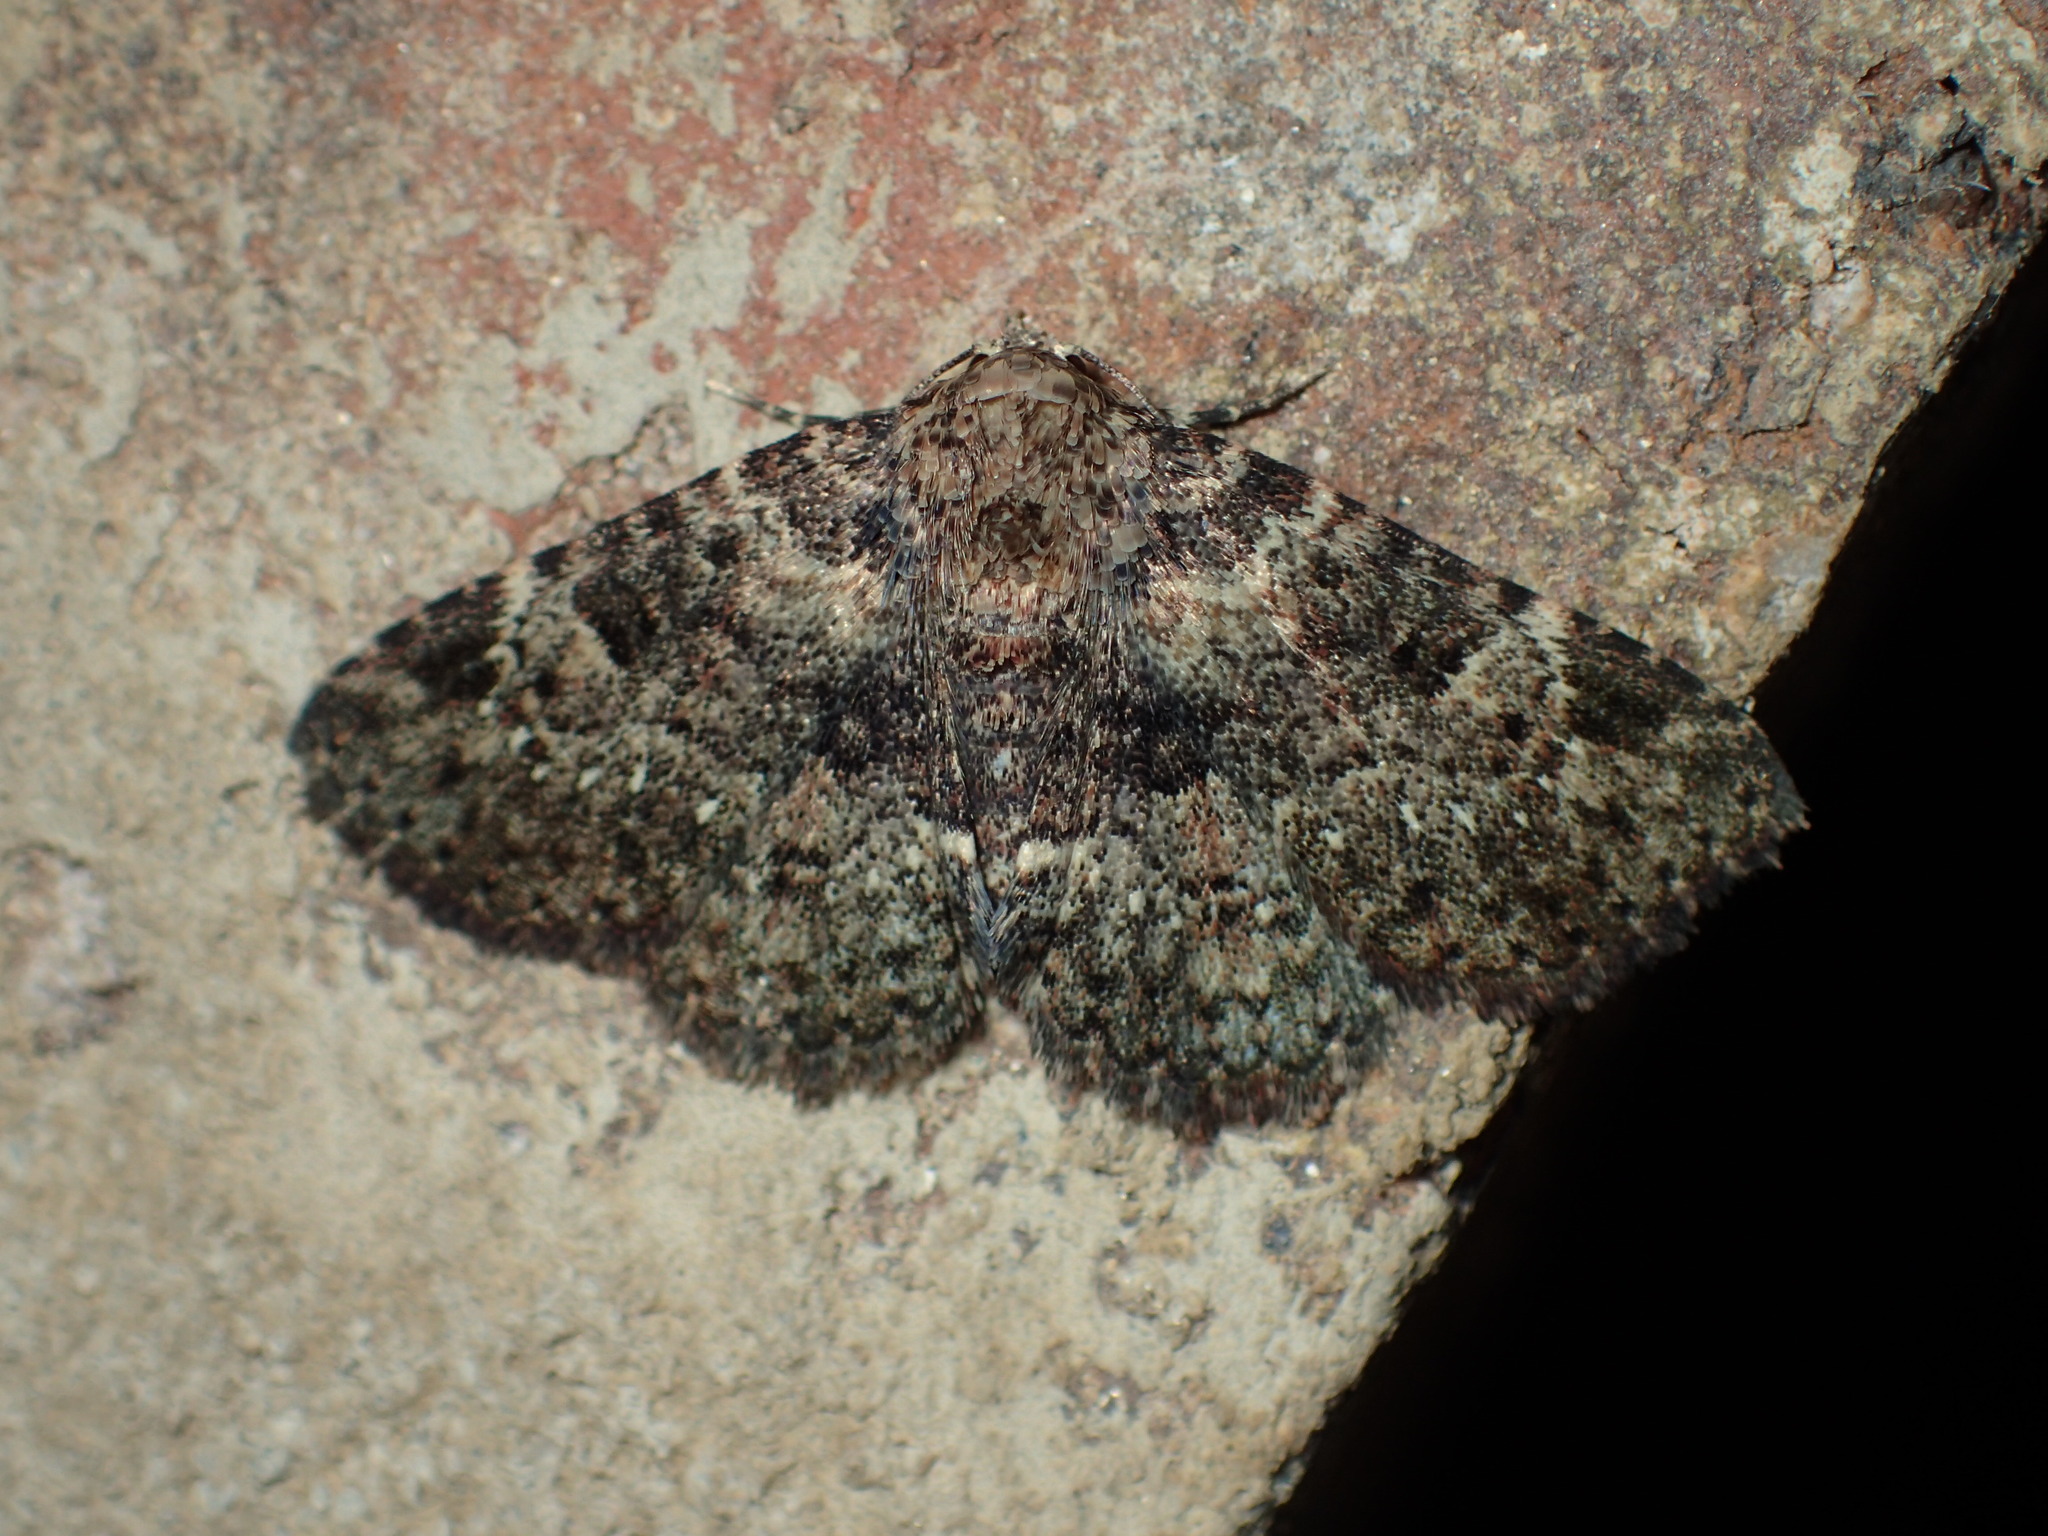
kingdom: Animalia
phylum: Arthropoda
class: Insecta
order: Lepidoptera
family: Erebidae
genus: Metalectra
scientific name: Metalectra discalis
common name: Common fungus moth
